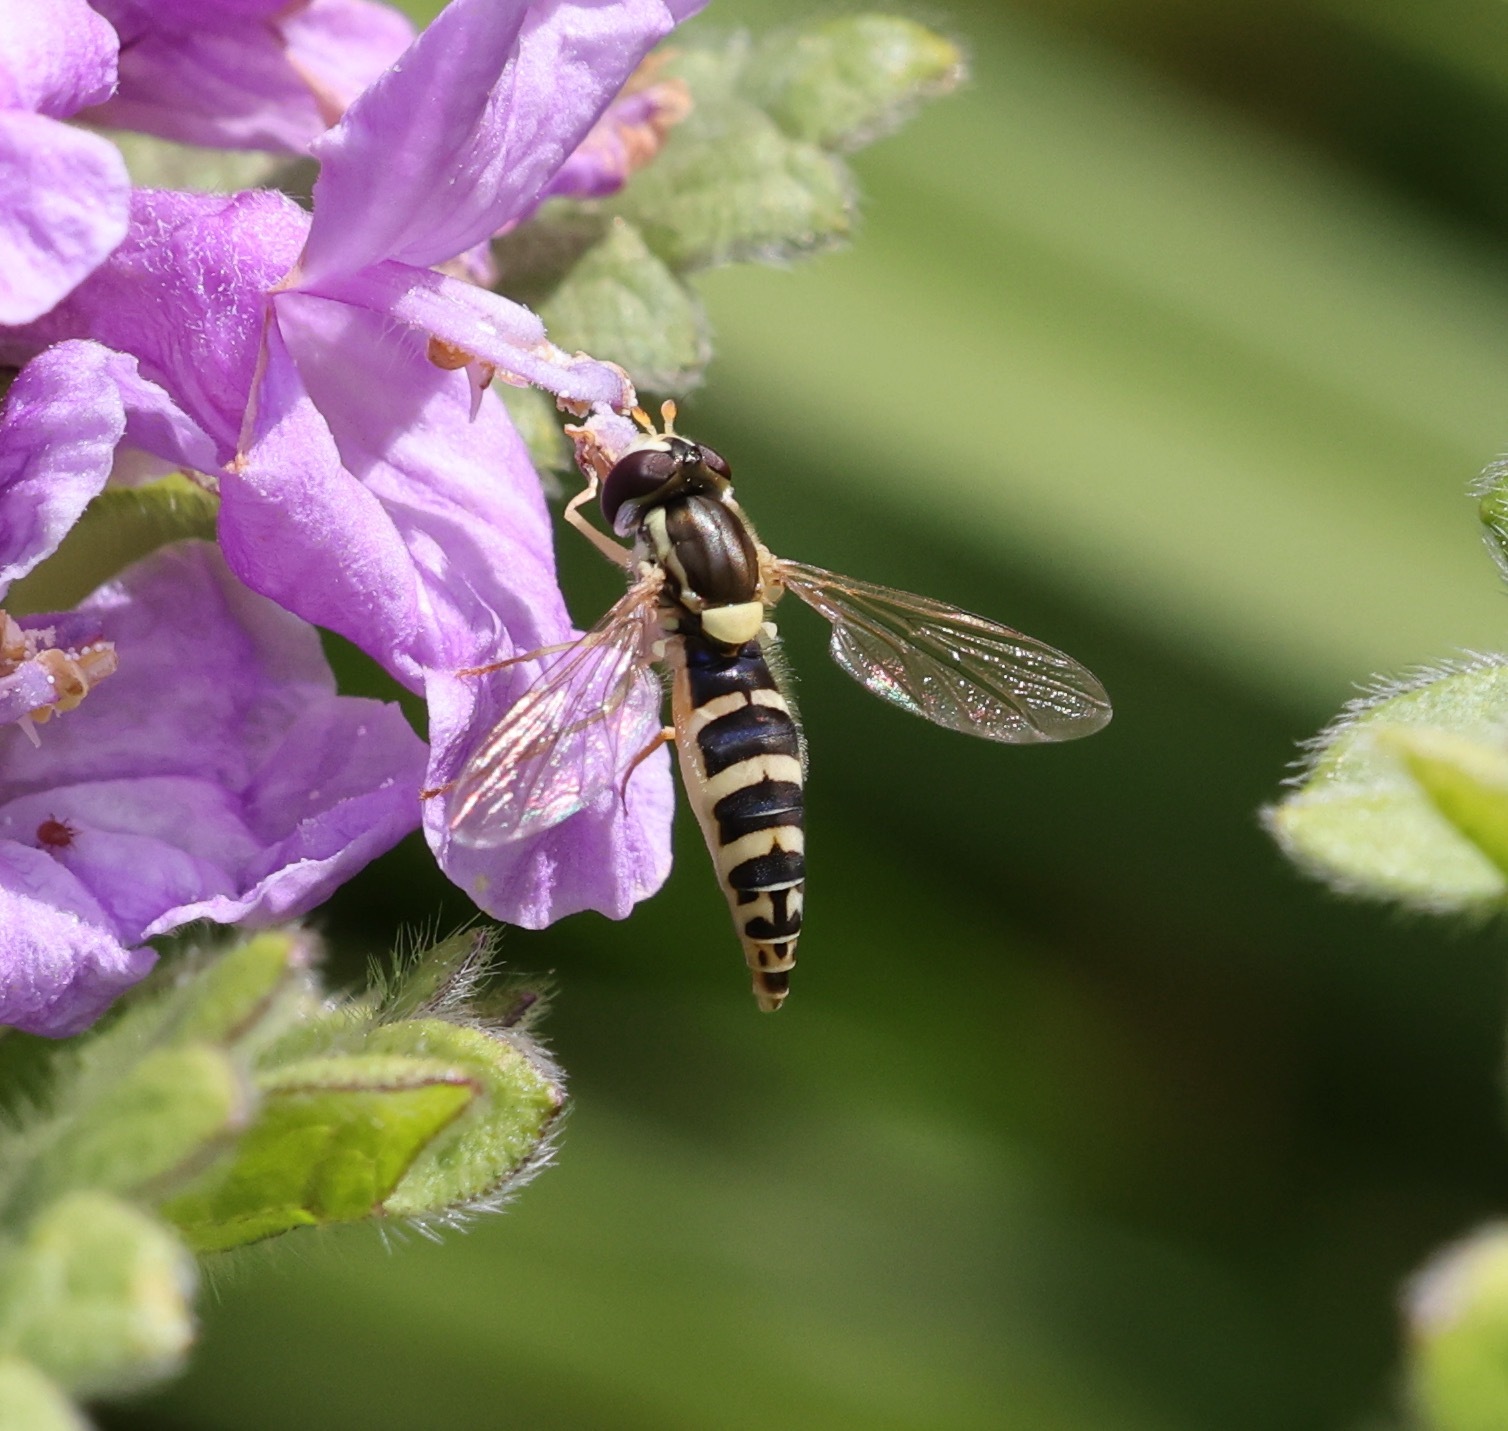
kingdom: Animalia
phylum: Arthropoda
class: Insecta
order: Diptera
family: Syrphidae
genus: Sphaerophoria
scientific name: Sphaerophoria scripta
